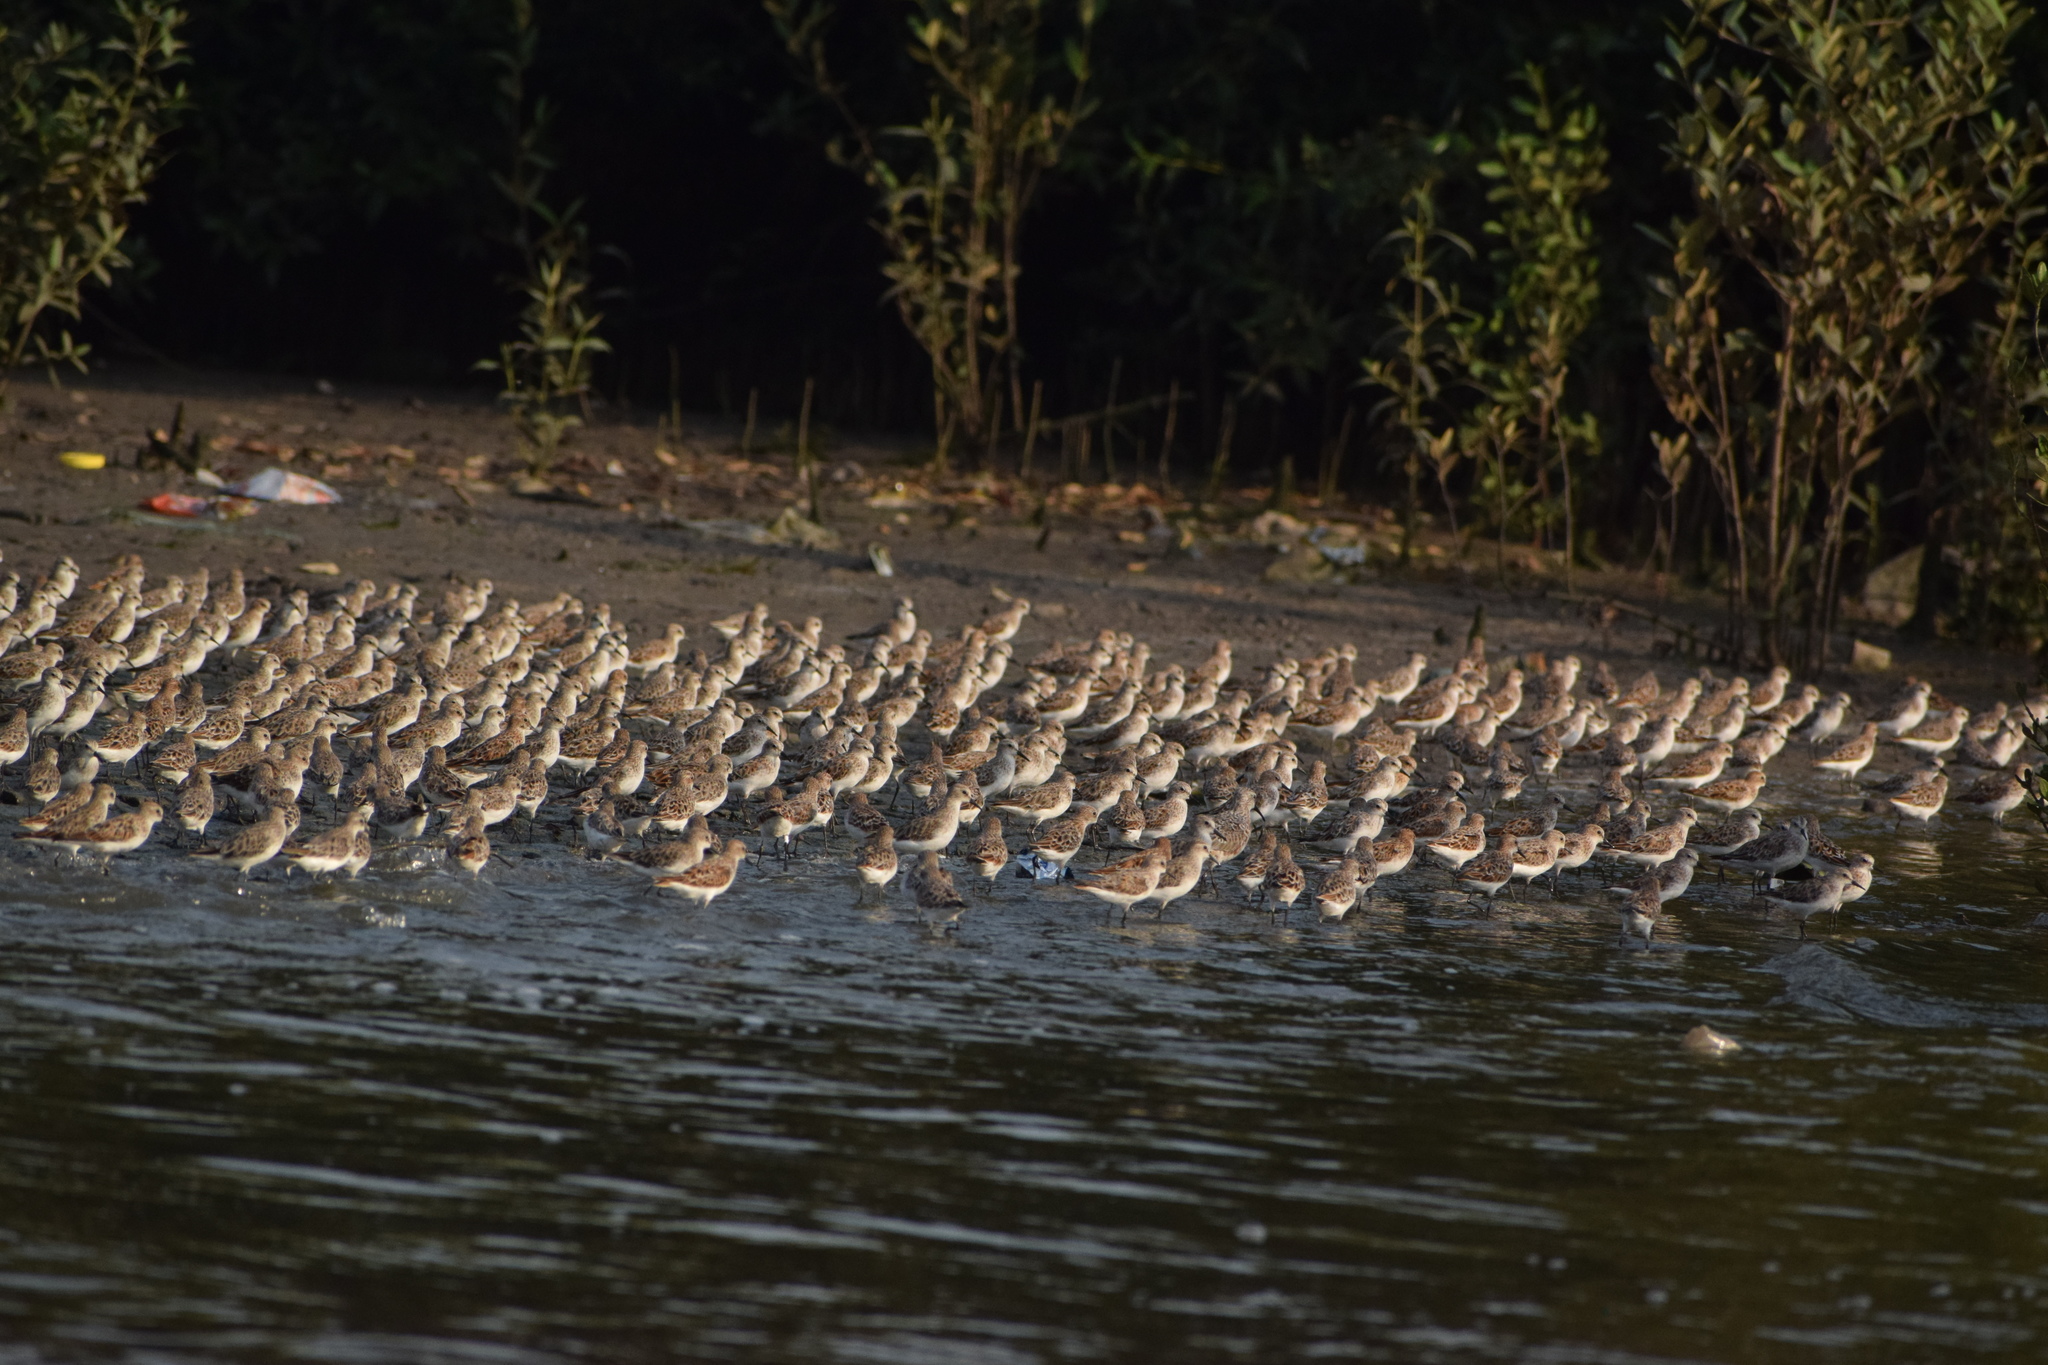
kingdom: Animalia
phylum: Chordata
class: Aves
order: Charadriiformes
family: Scolopacidae
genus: Calidris
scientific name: Calidris minuta
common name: Little stint
